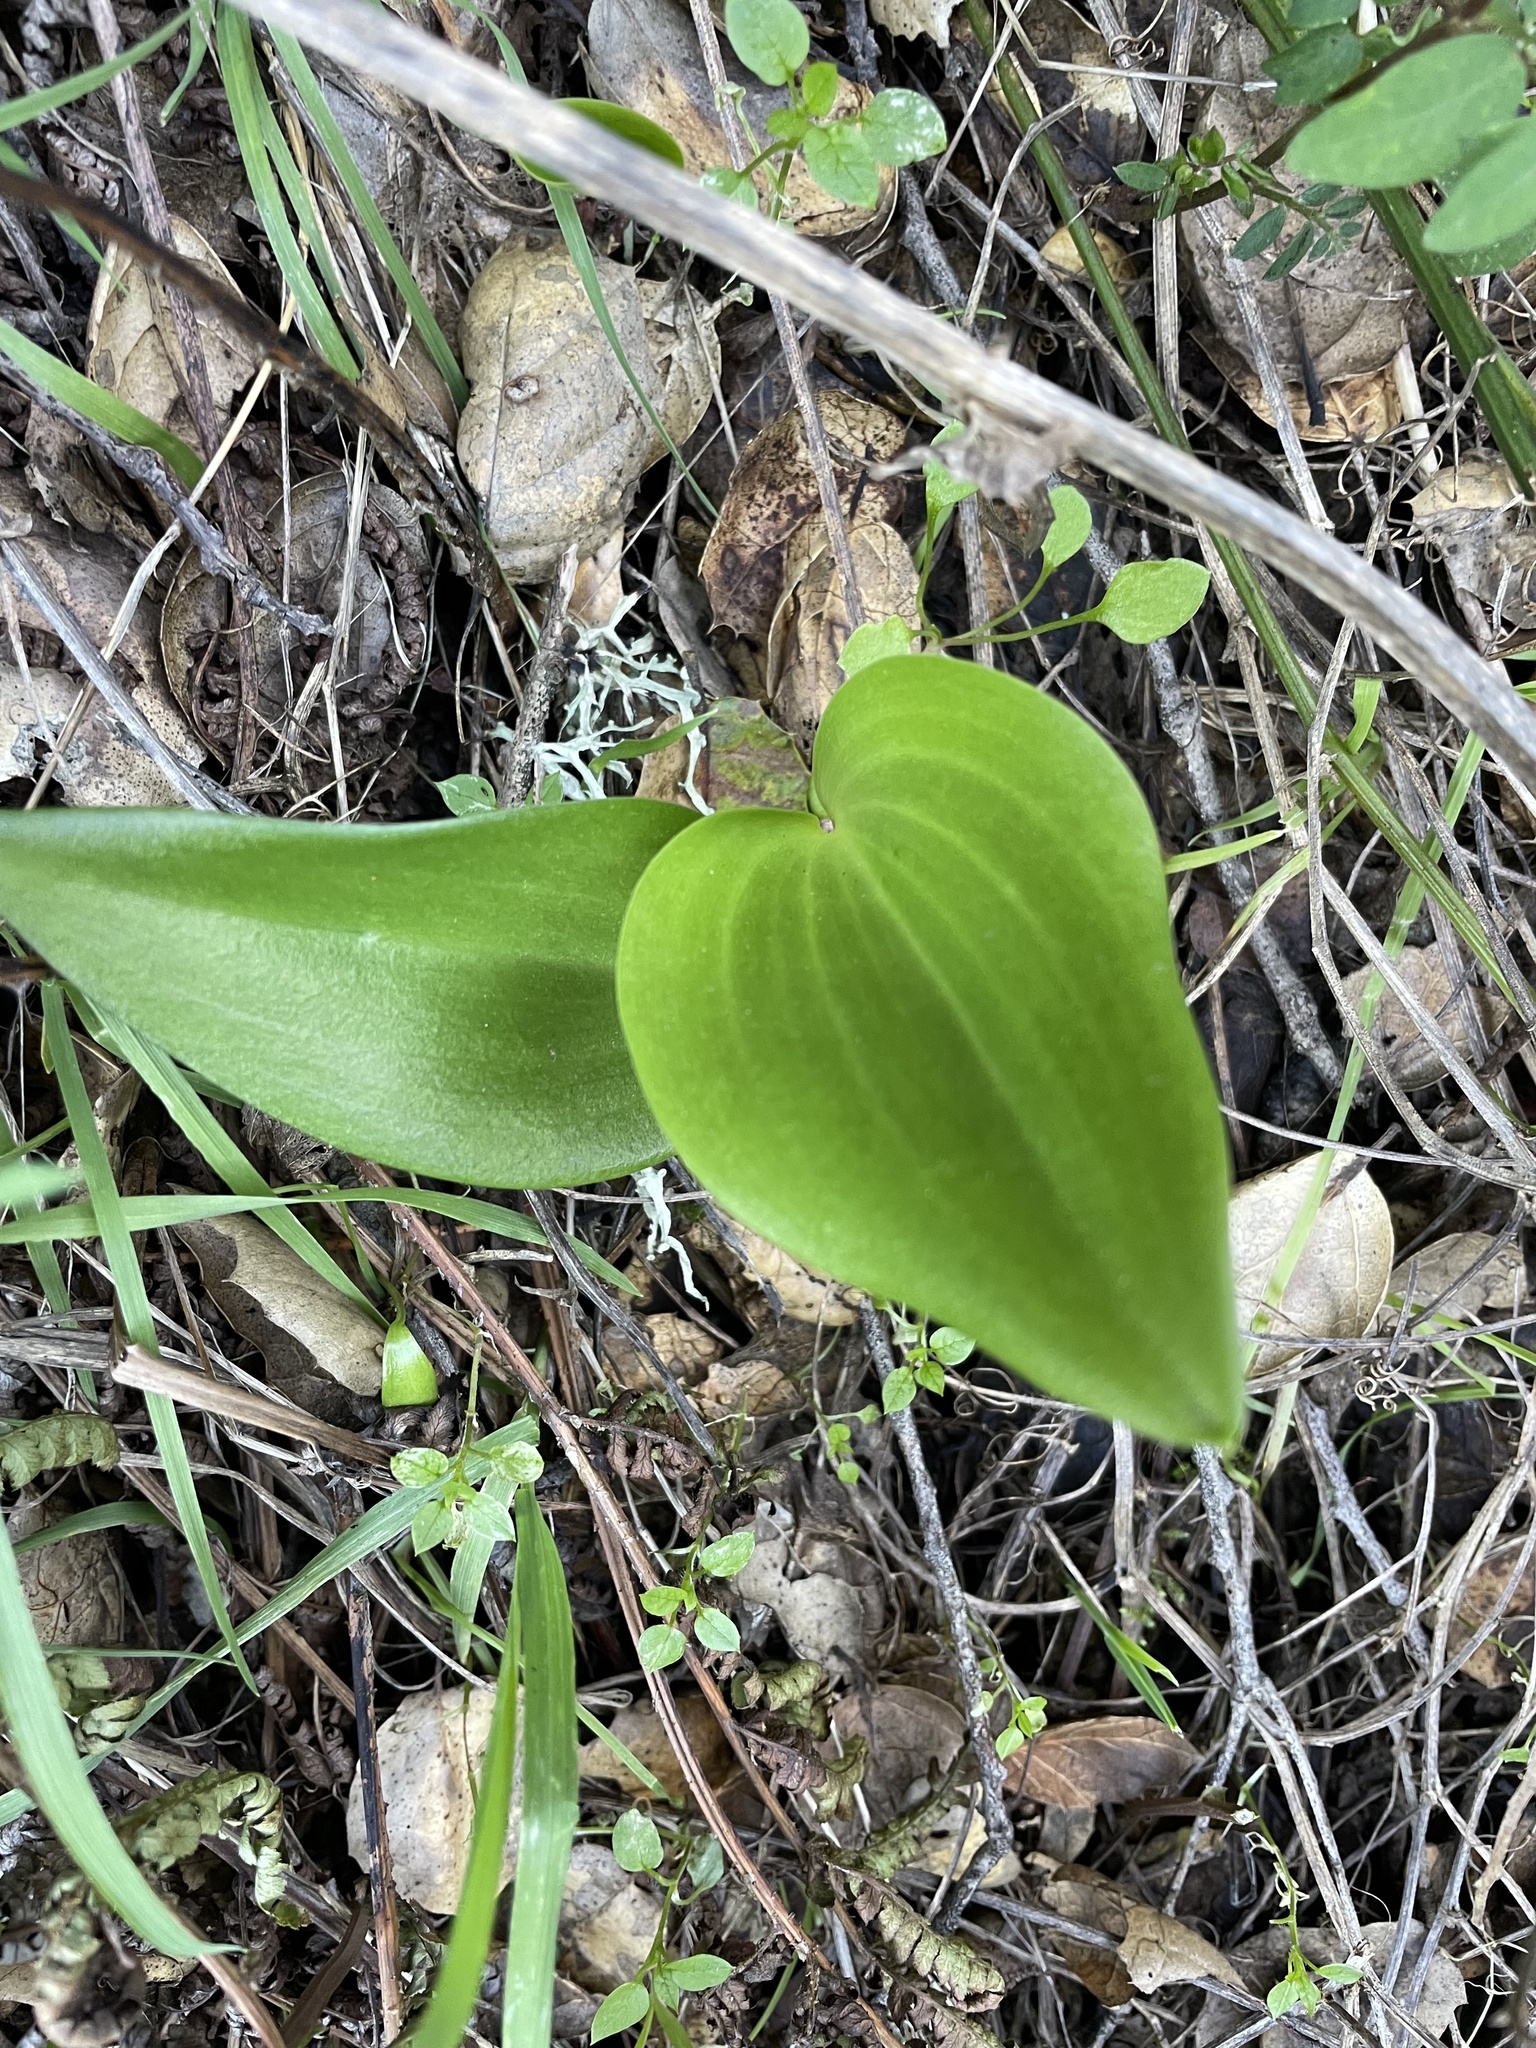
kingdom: Plantae
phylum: Tracheophyta
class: Liliopsida
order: Liliales
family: Liliaceae
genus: Fritillaria
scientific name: Fritillaria affinis
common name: Ojai fritillary
